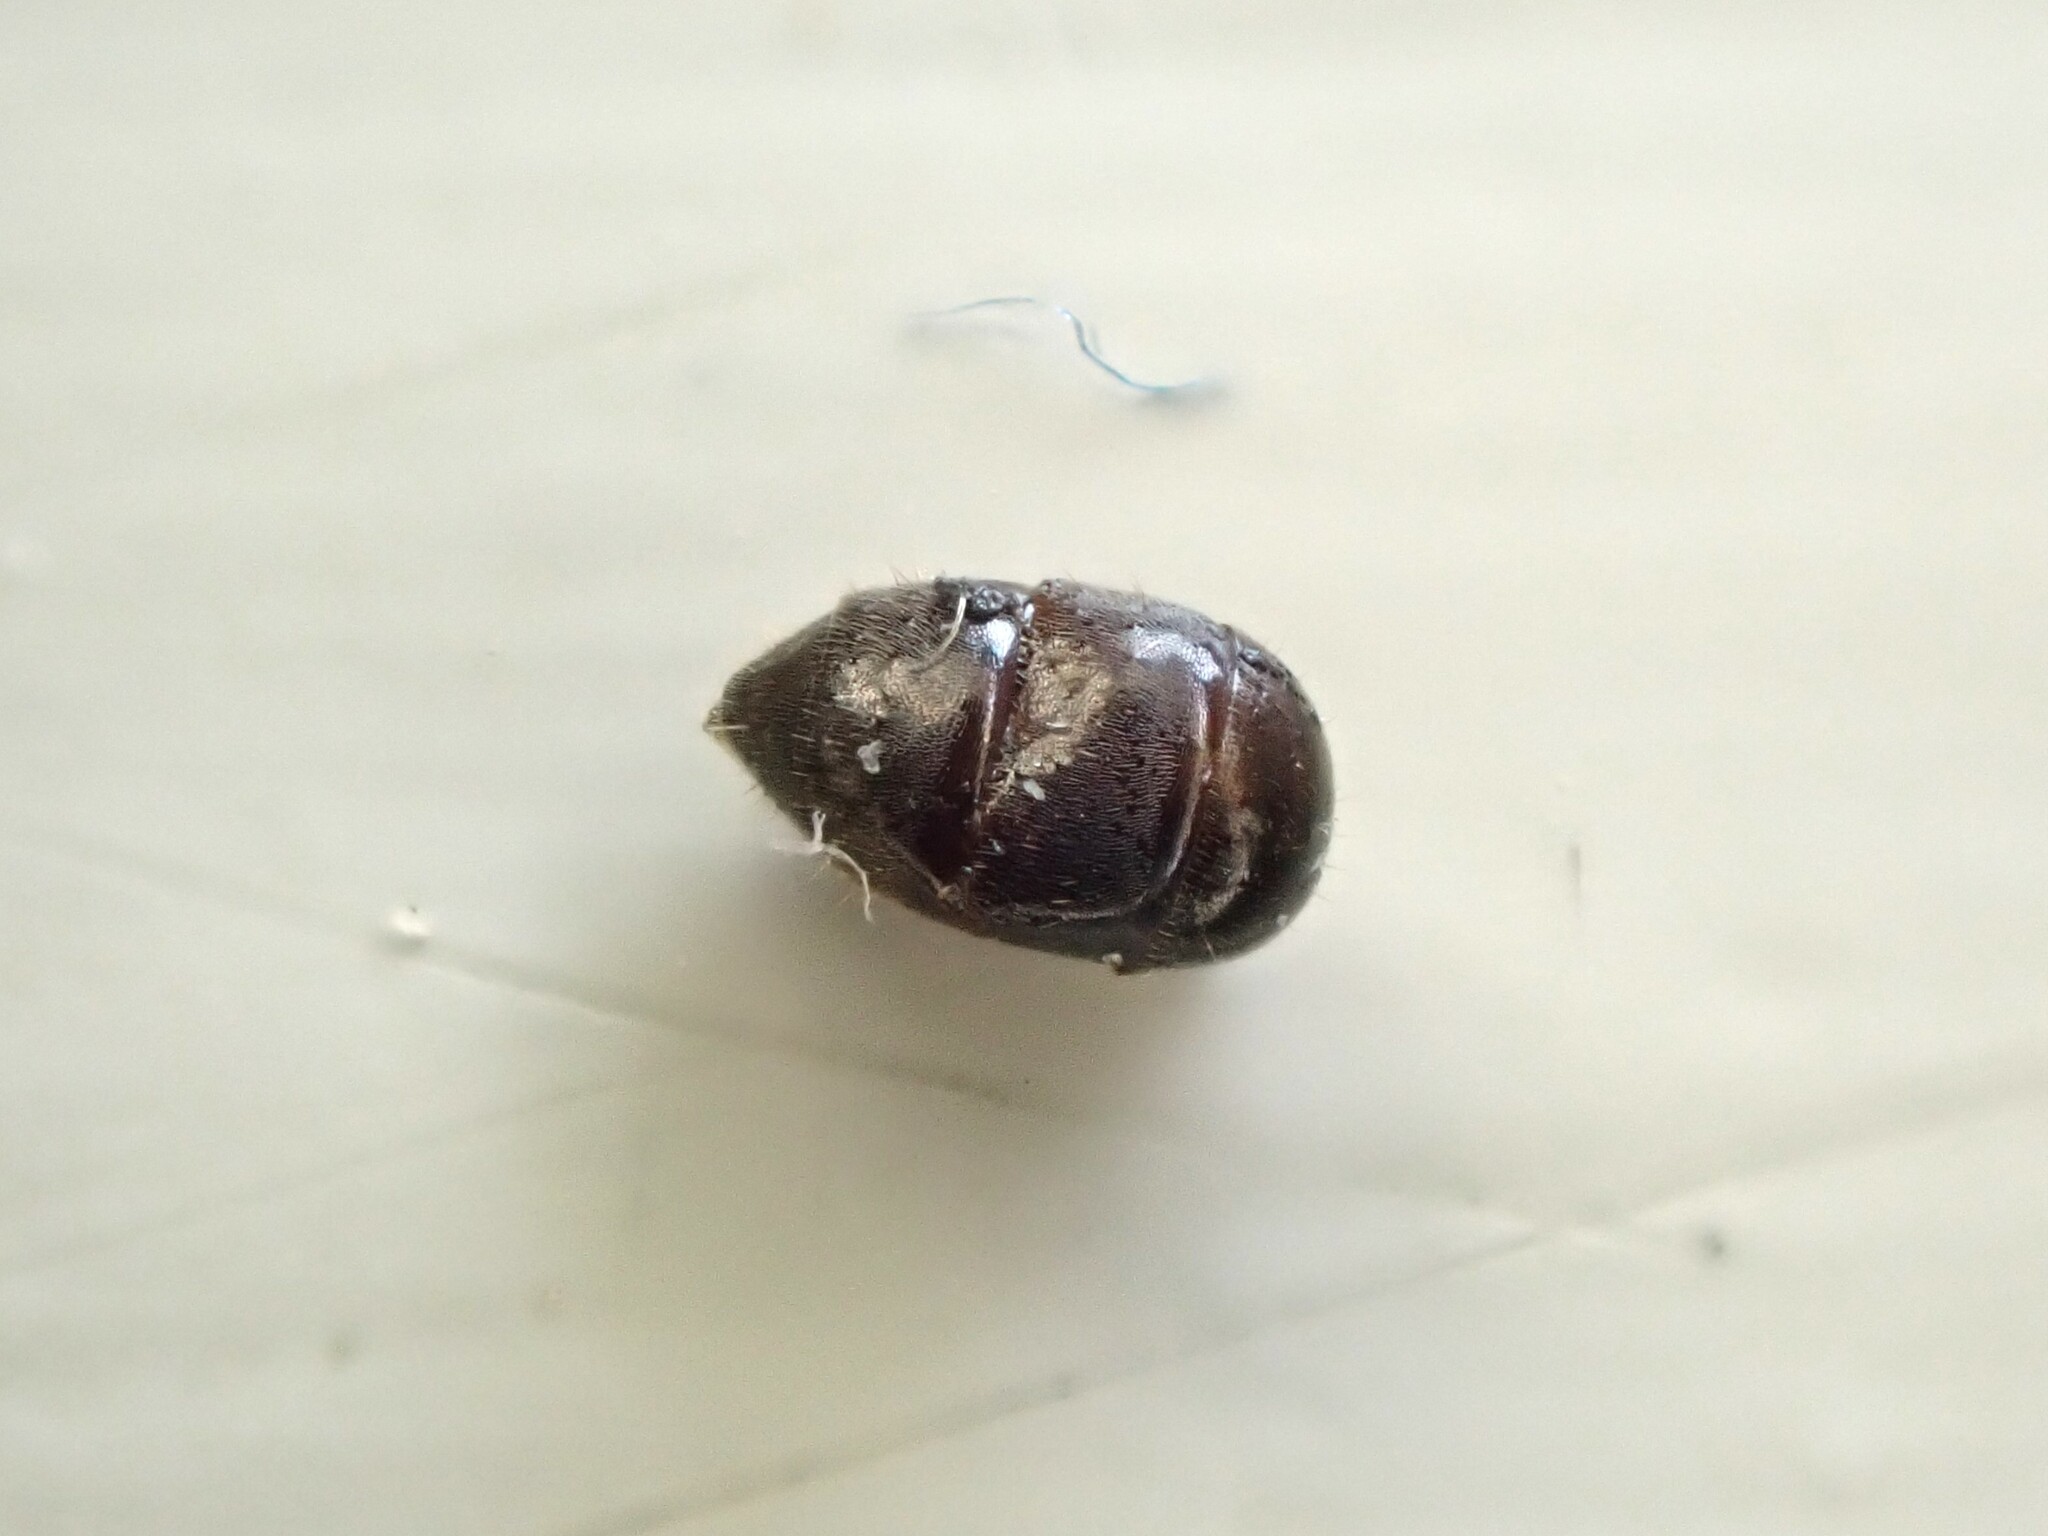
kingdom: Animalia
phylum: Arthropoda
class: Insecta
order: Hymenoptera
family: Formicidae
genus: Technomyrmex
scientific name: Technomyrmex jocosus
